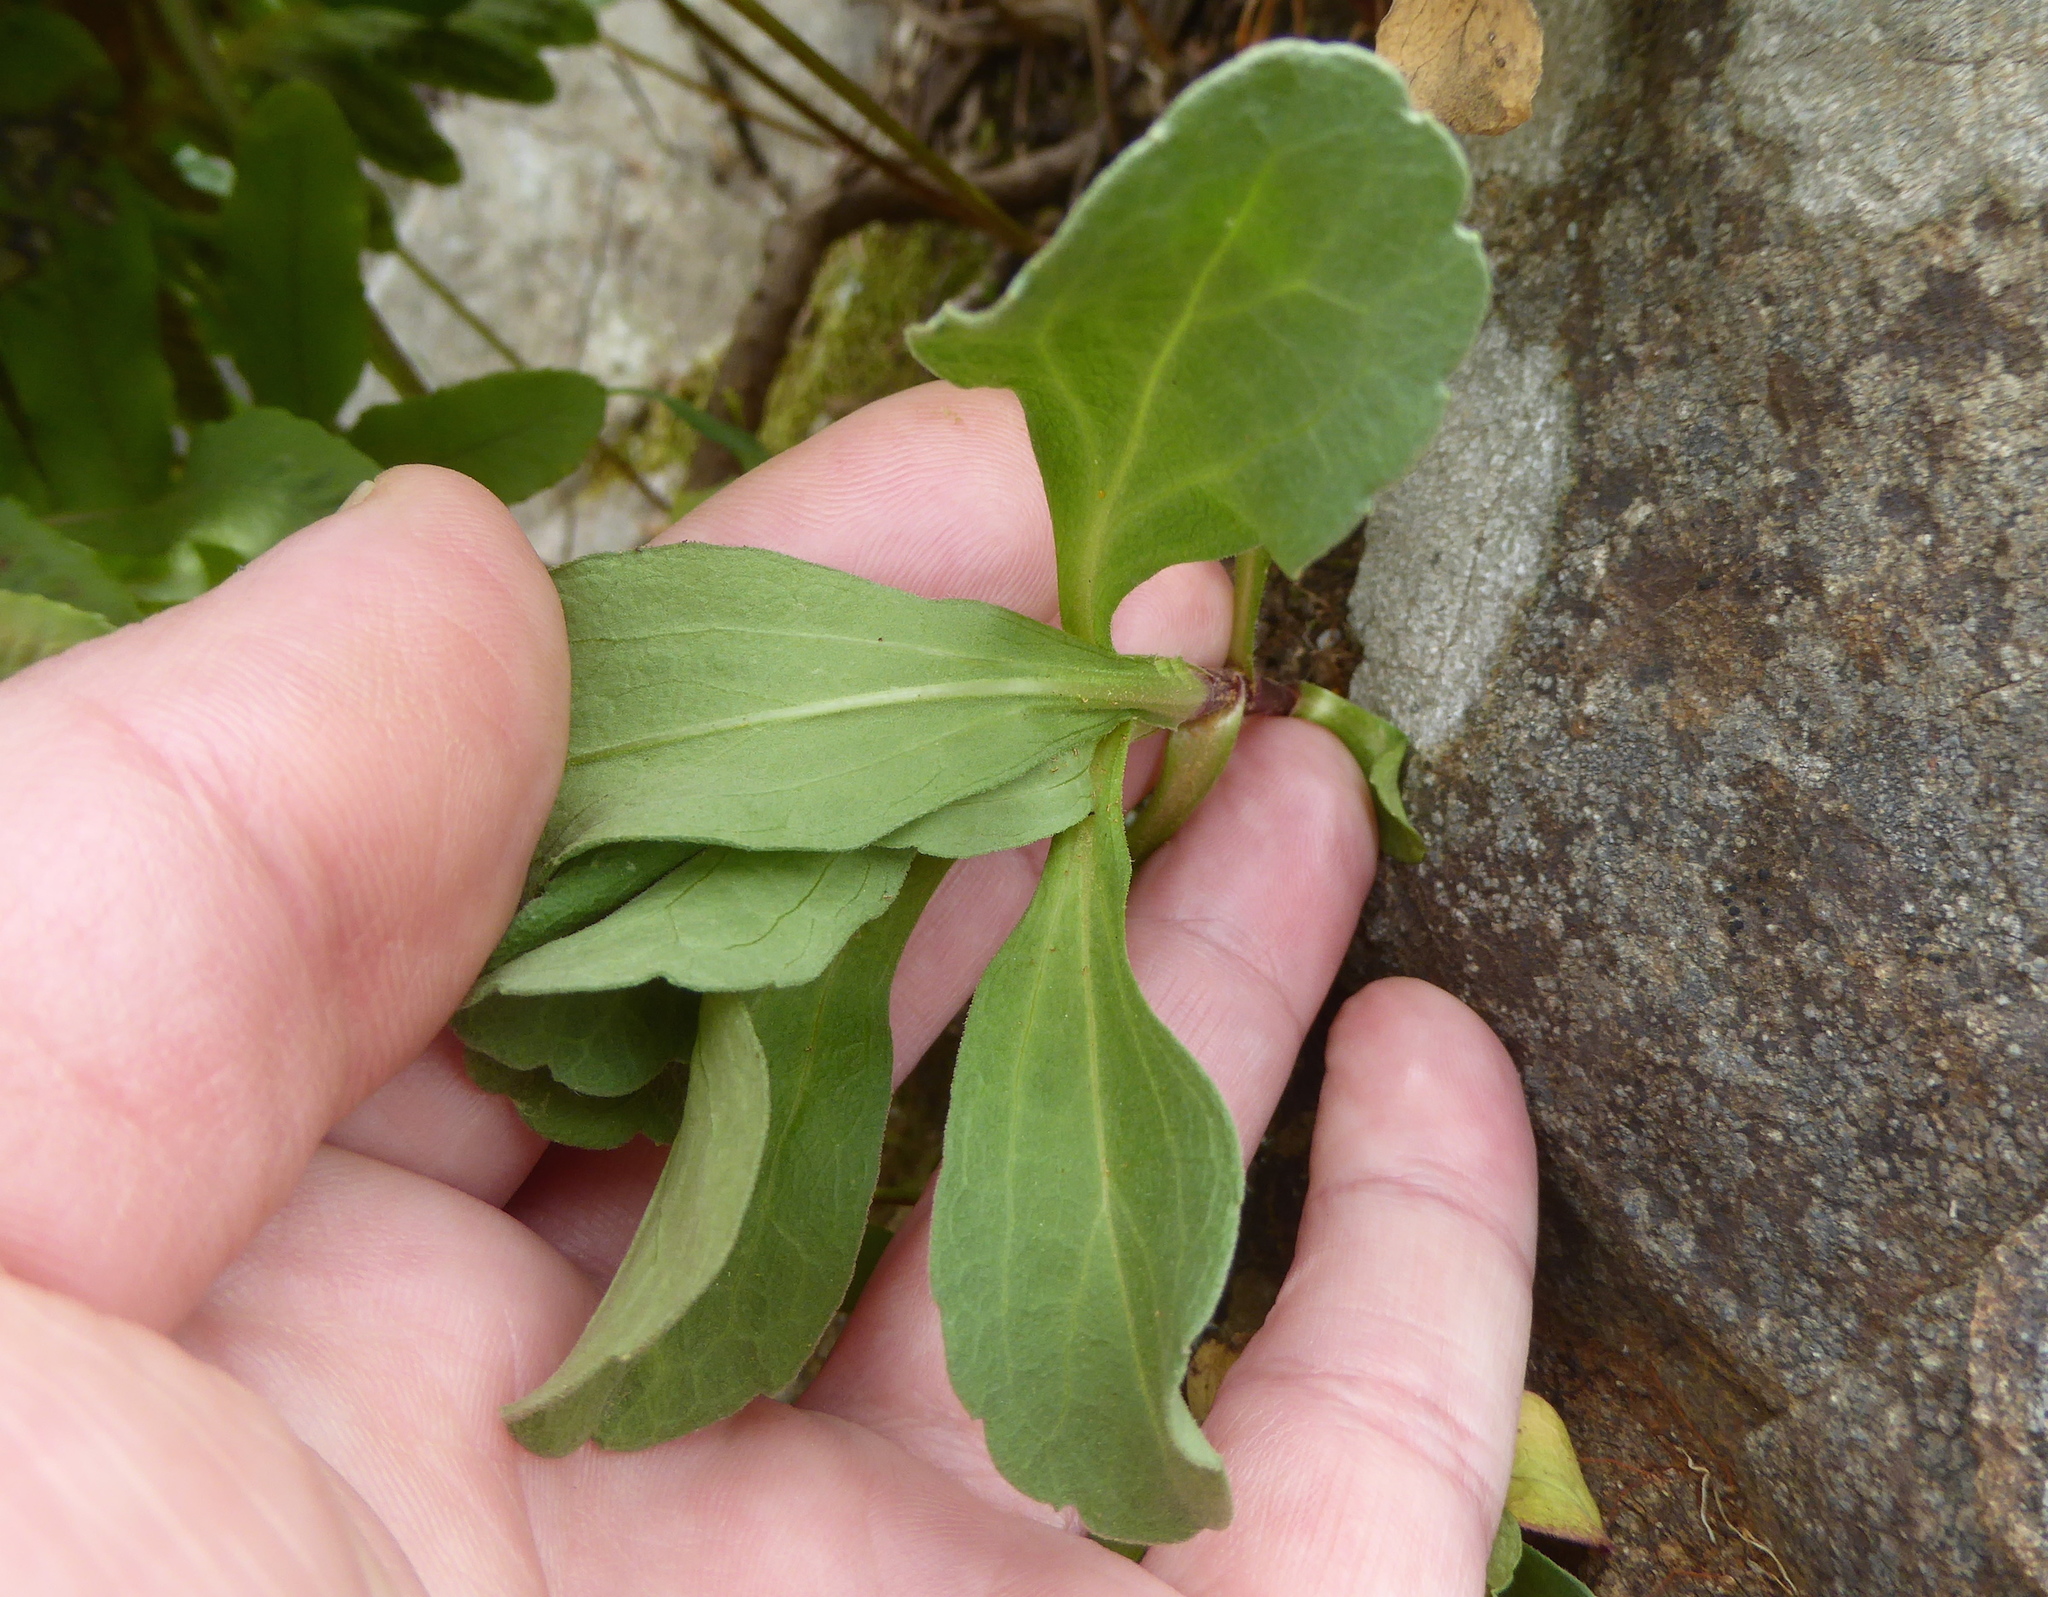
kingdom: Plantae
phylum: Tracheophyta
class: Magnoliopsida
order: Asterales
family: Asteraceae
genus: Erigeron
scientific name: Erigeron glaucus
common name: Seaside daisy
